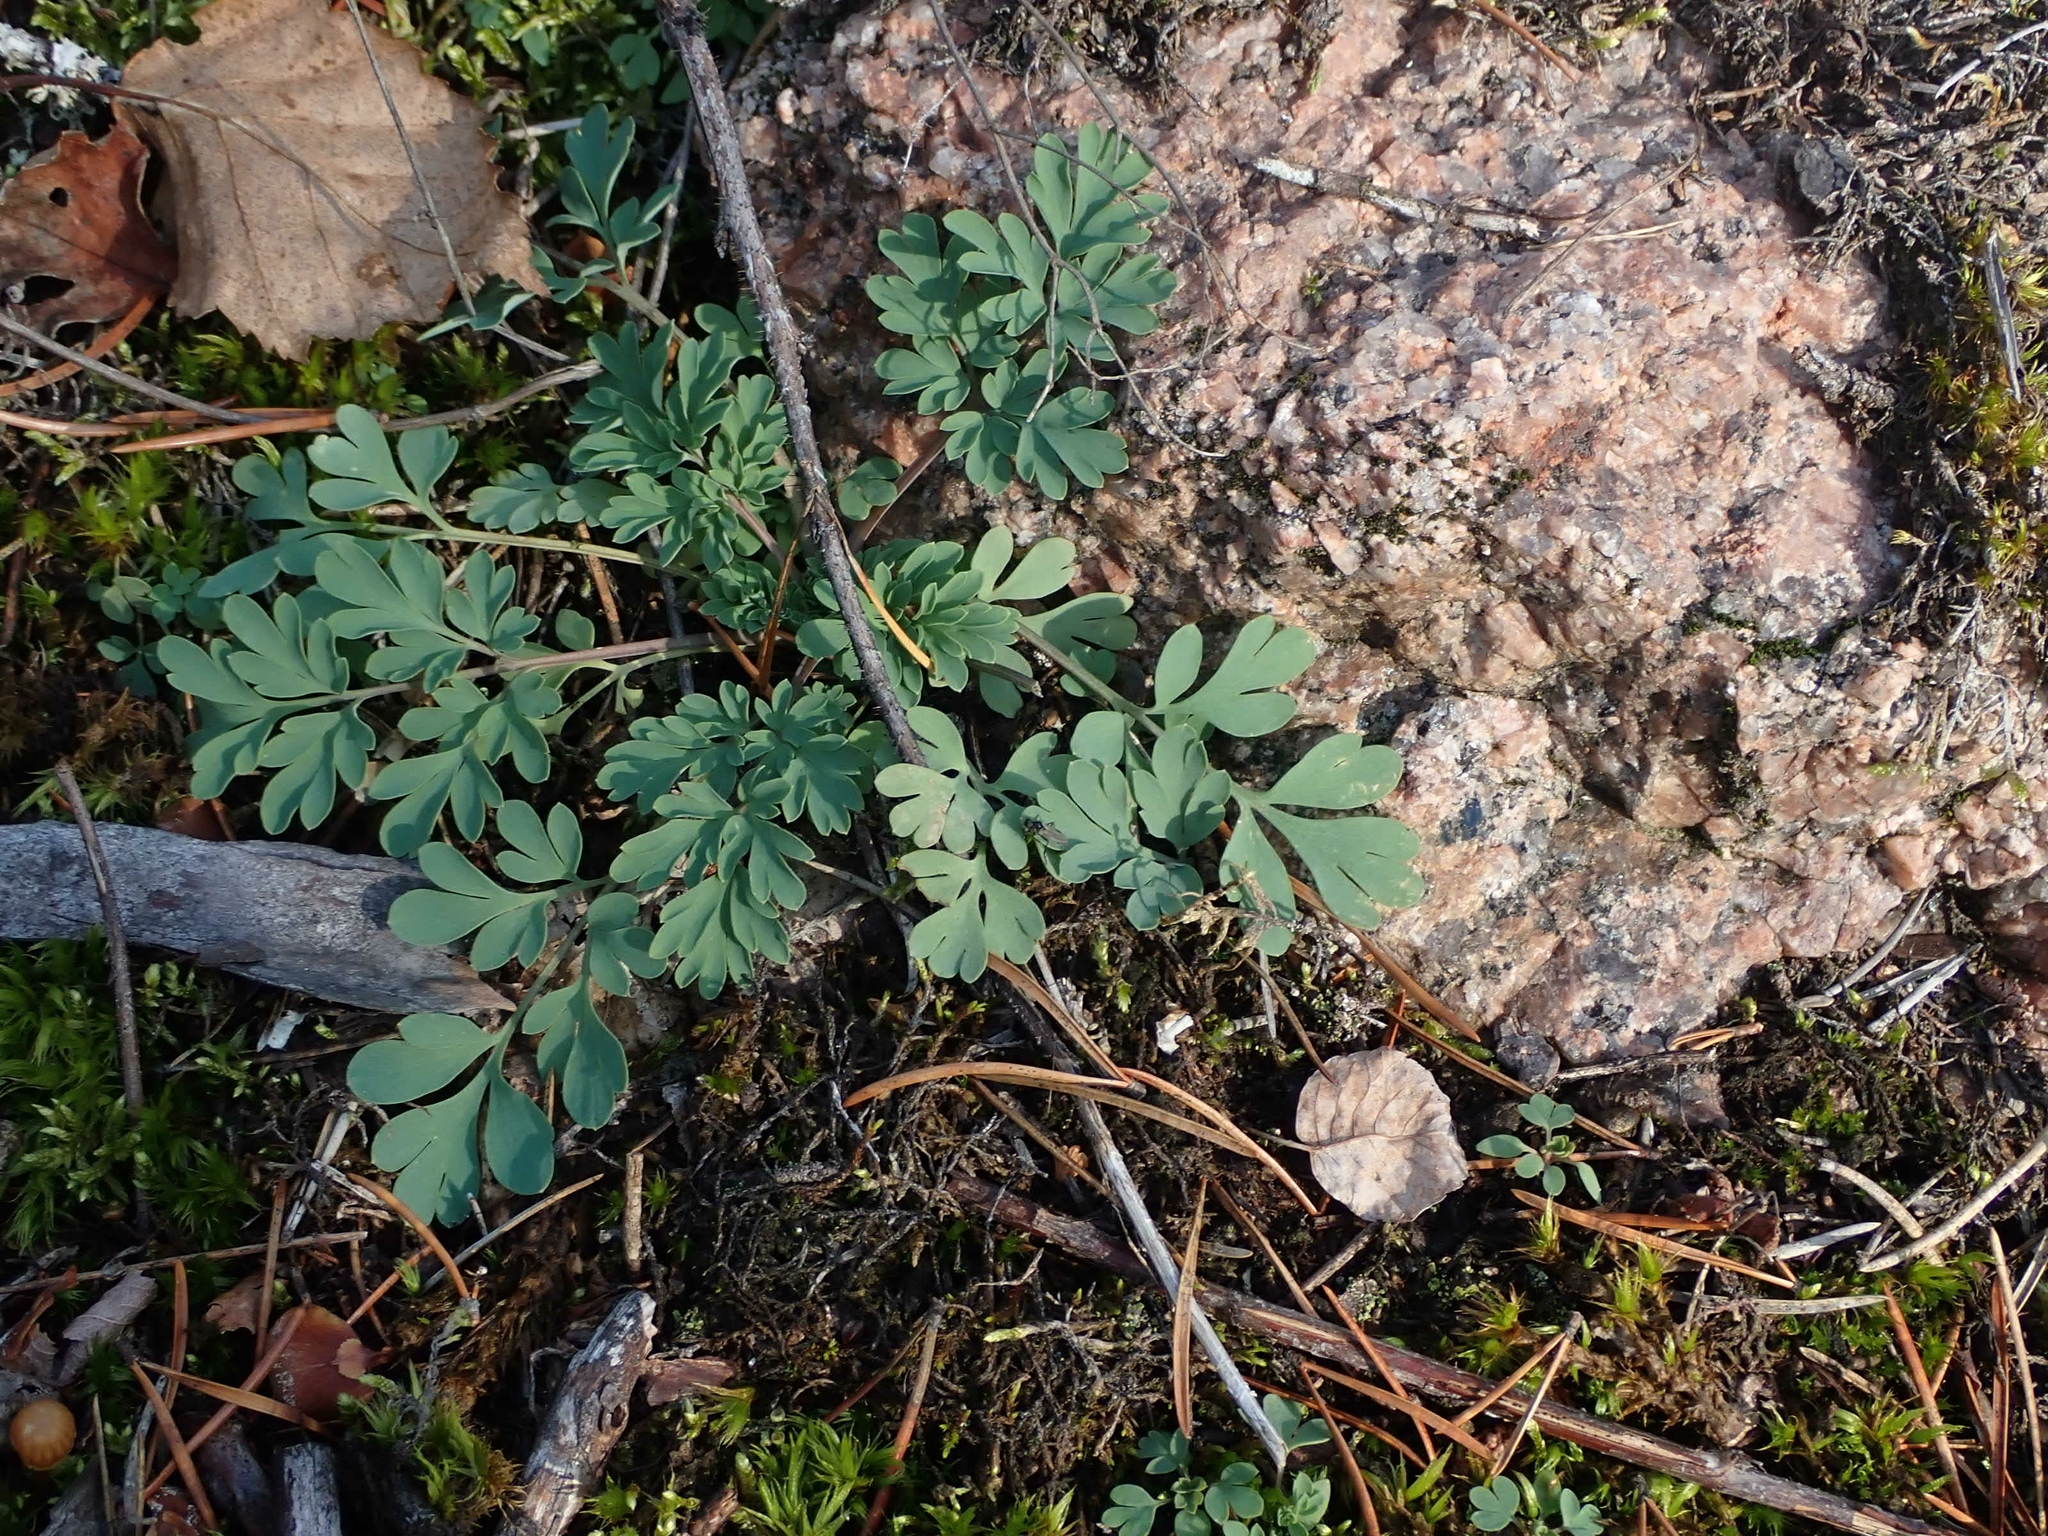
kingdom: Plantae
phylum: Tracheophyta
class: Magnoliopsida
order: Ranunculales
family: Papaveraceae
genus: Capnoides
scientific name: Capnoides sempervirens
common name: Rock harlequin
